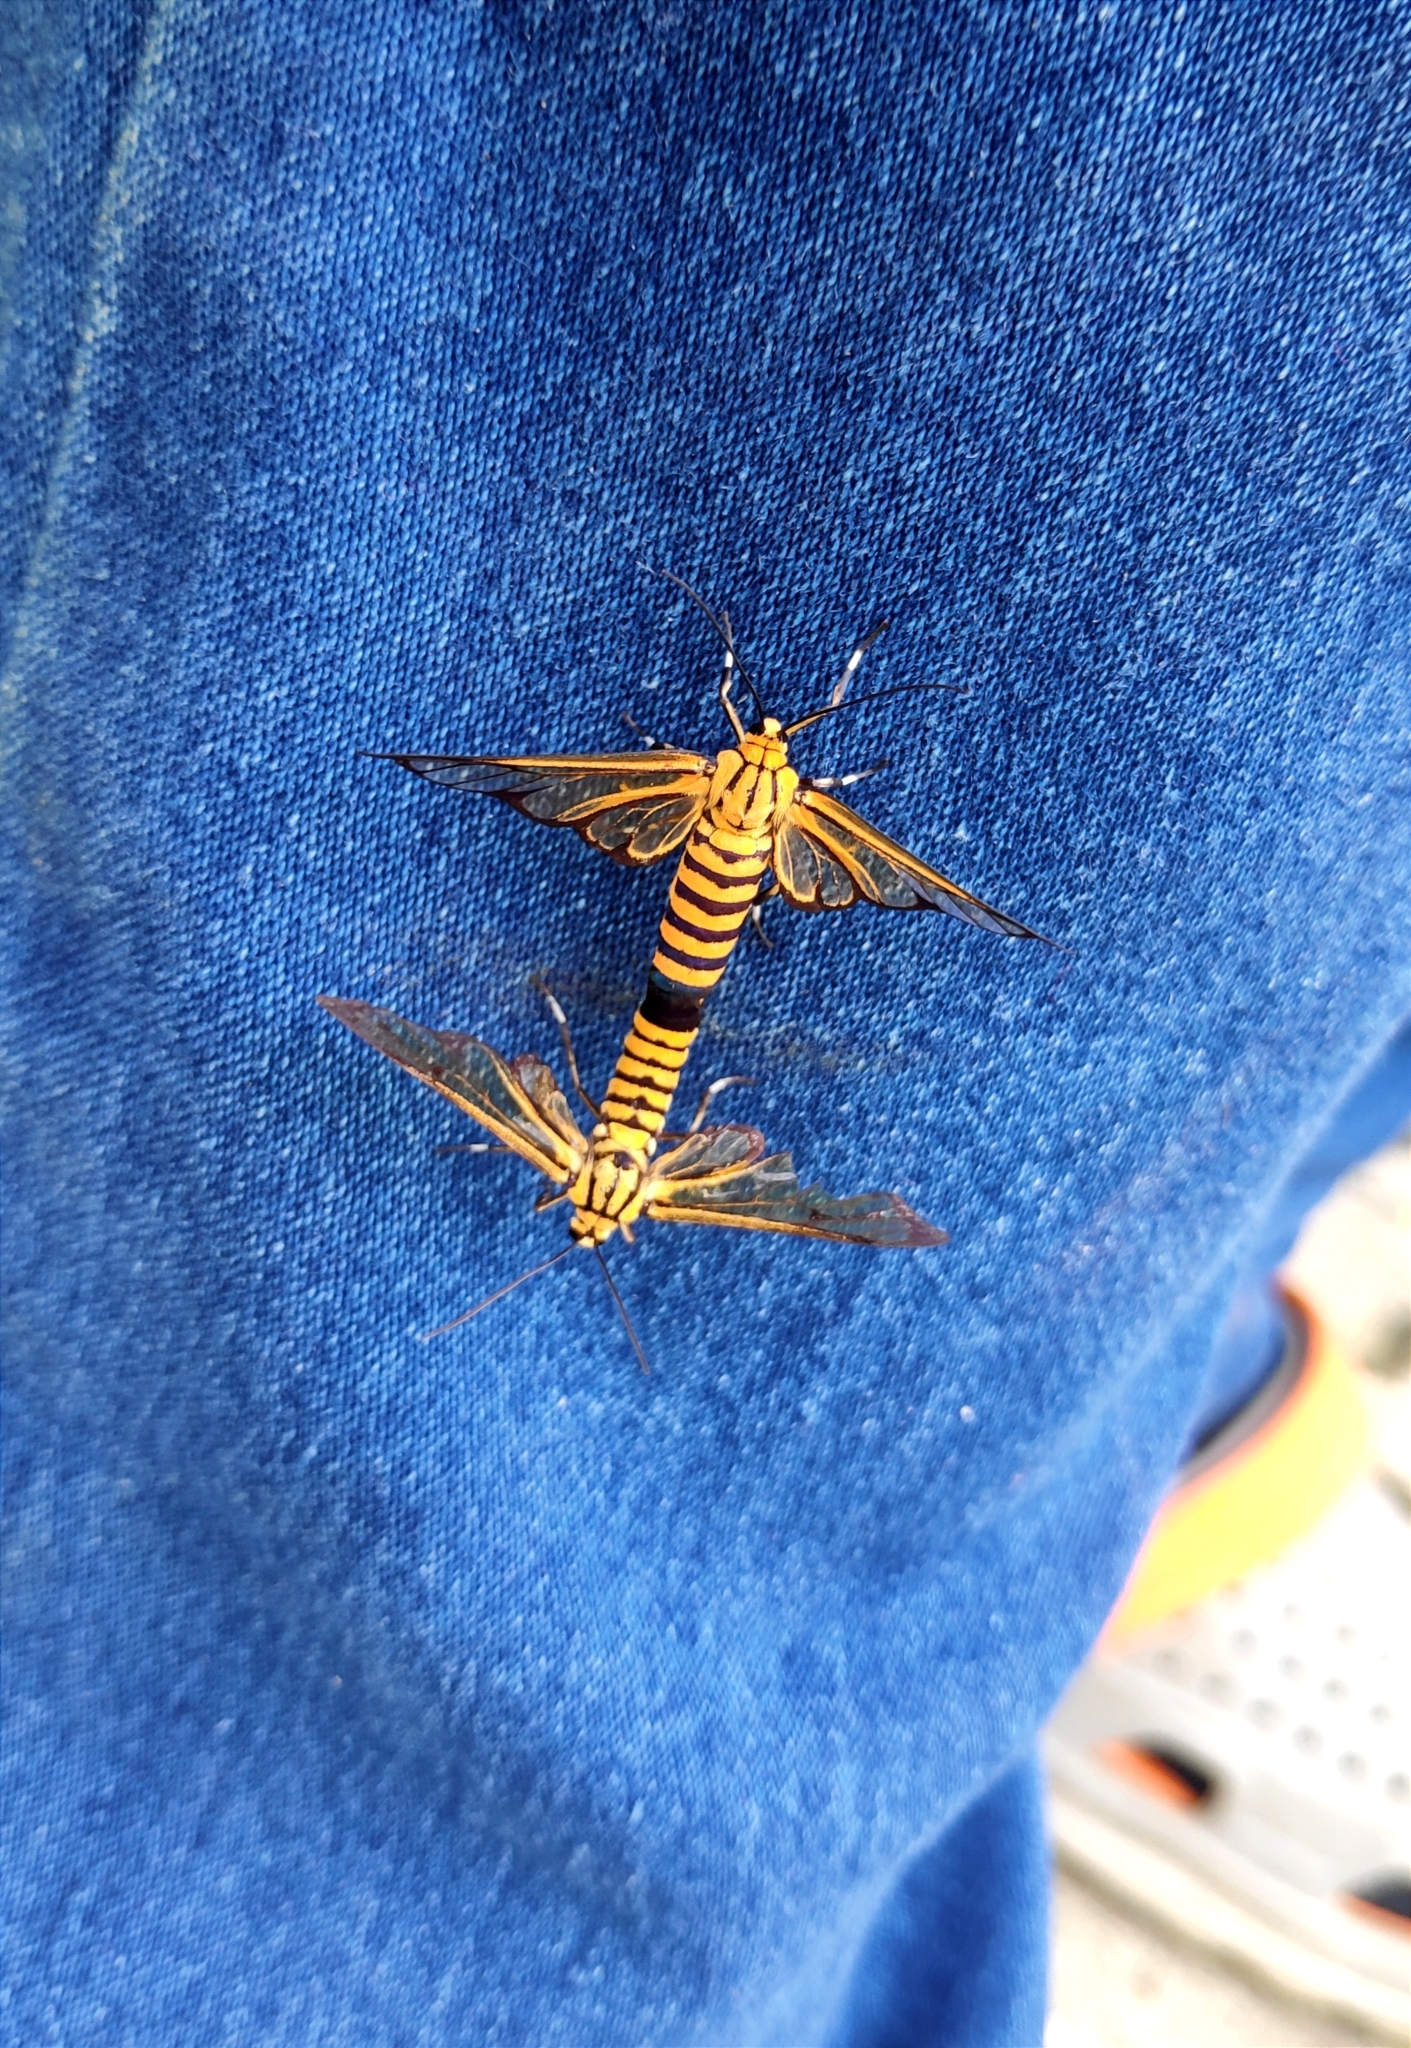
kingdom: Animalia
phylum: Arthropoda
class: Insecta
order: Lepidoptera
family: Erebidae
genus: Amata
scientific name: Amata grotei
